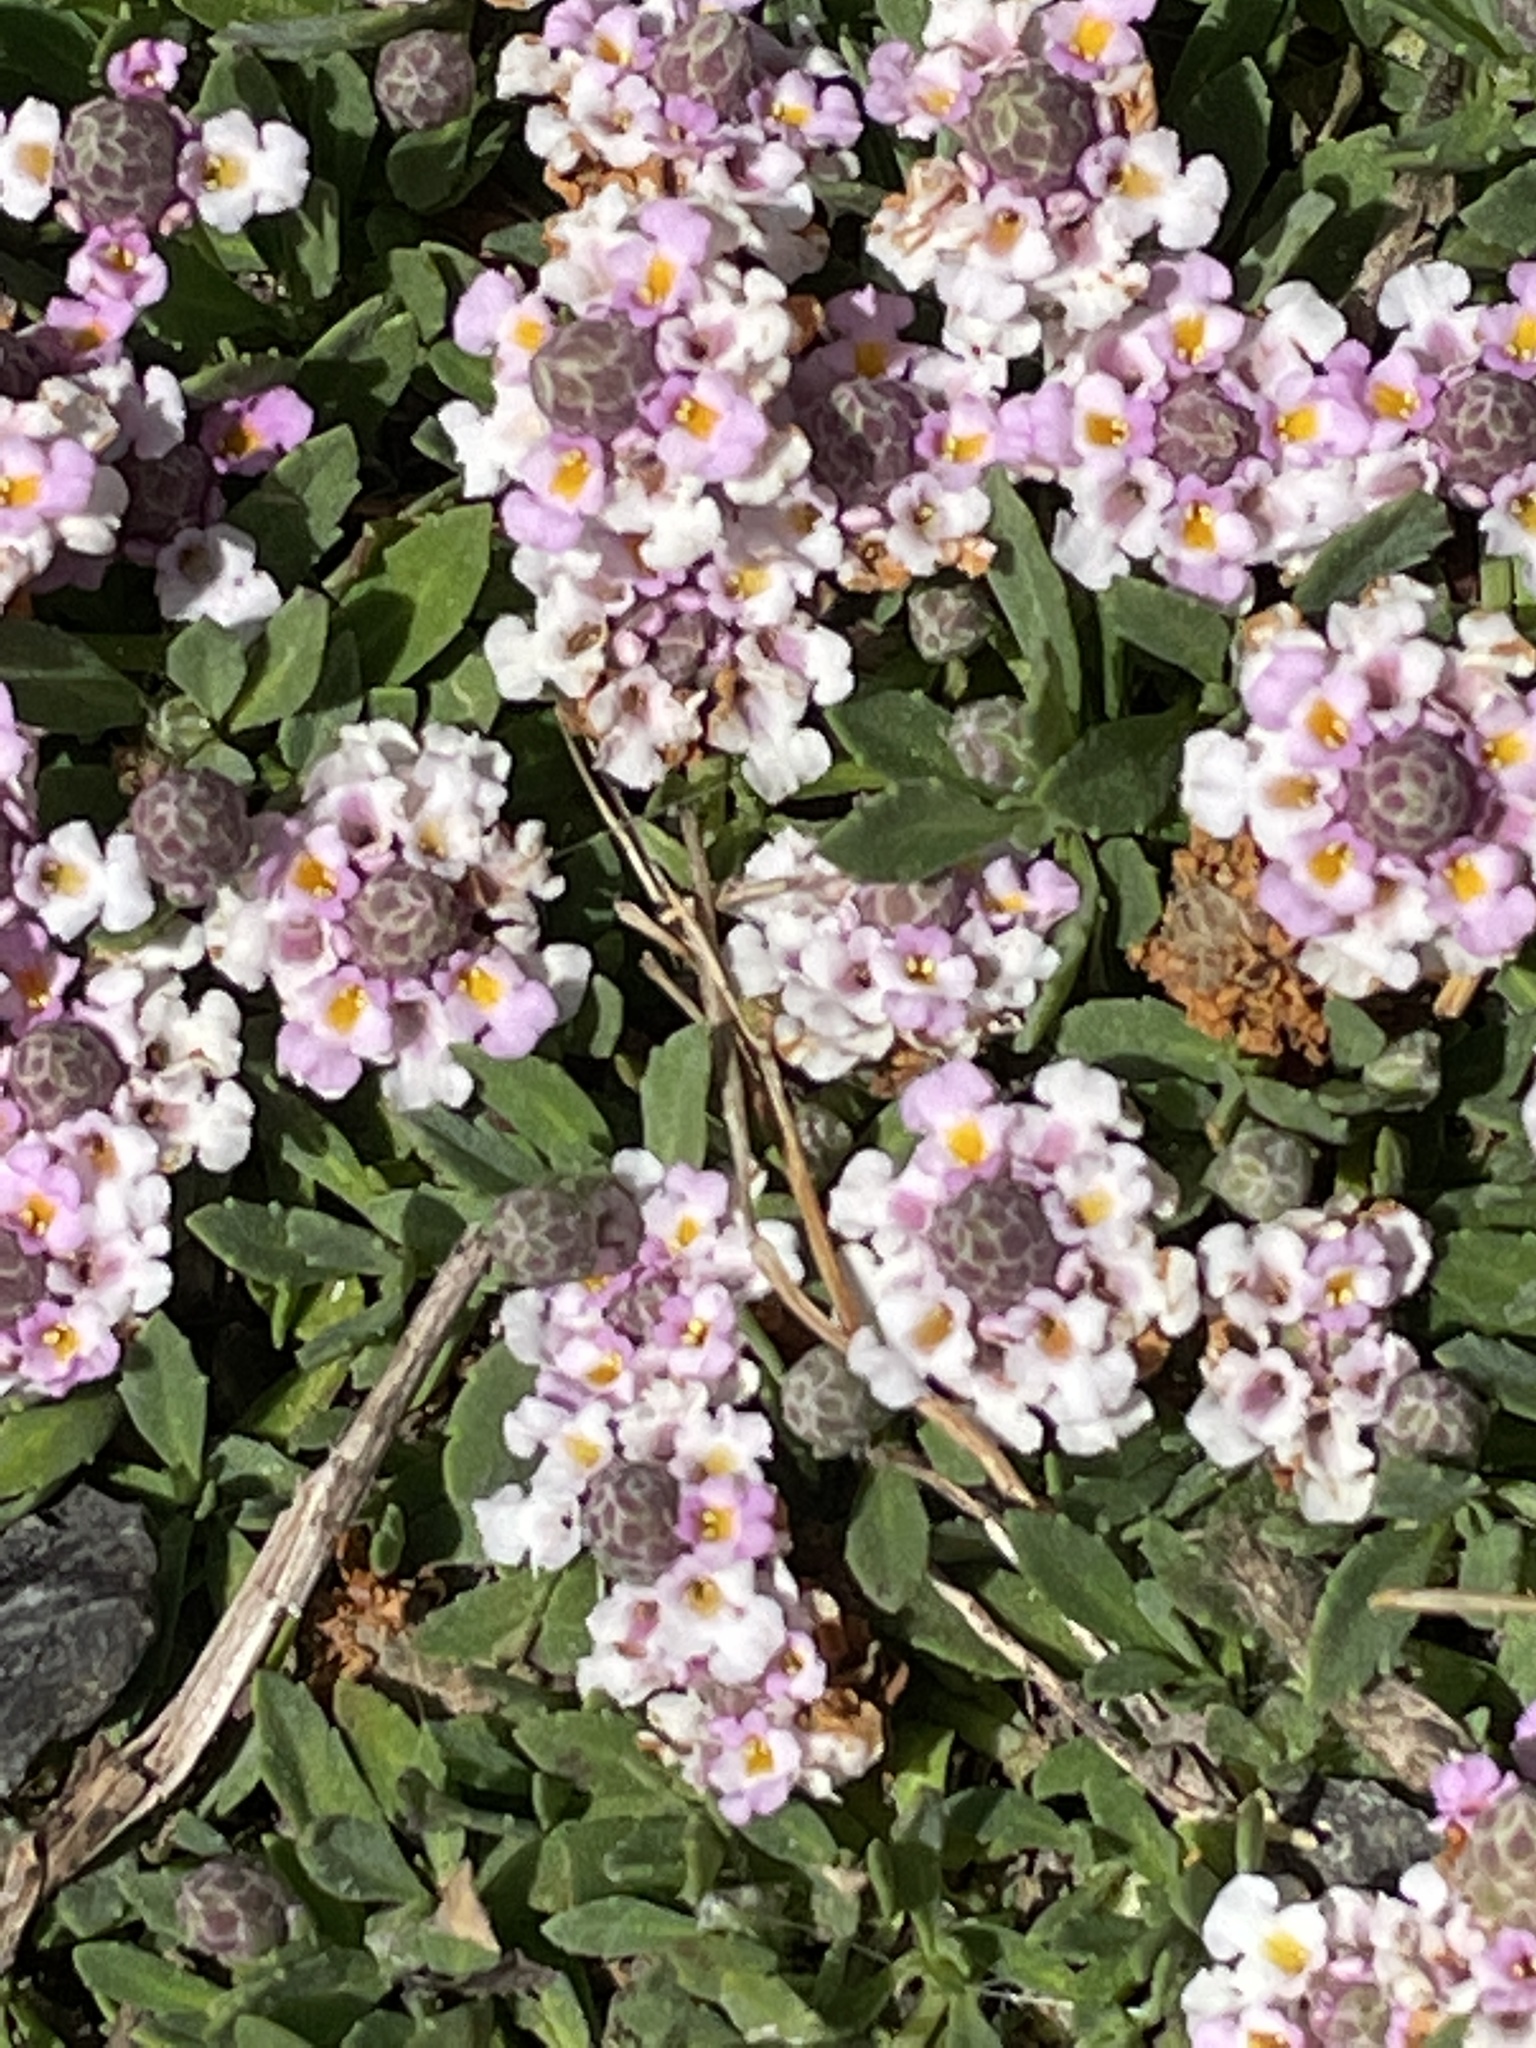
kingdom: Plantae
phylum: Tracheophyta
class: Magnoliopsida
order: Lamiales
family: Verbenaceae
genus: Phyla
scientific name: Phyla nodiflora
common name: Frogfruit
